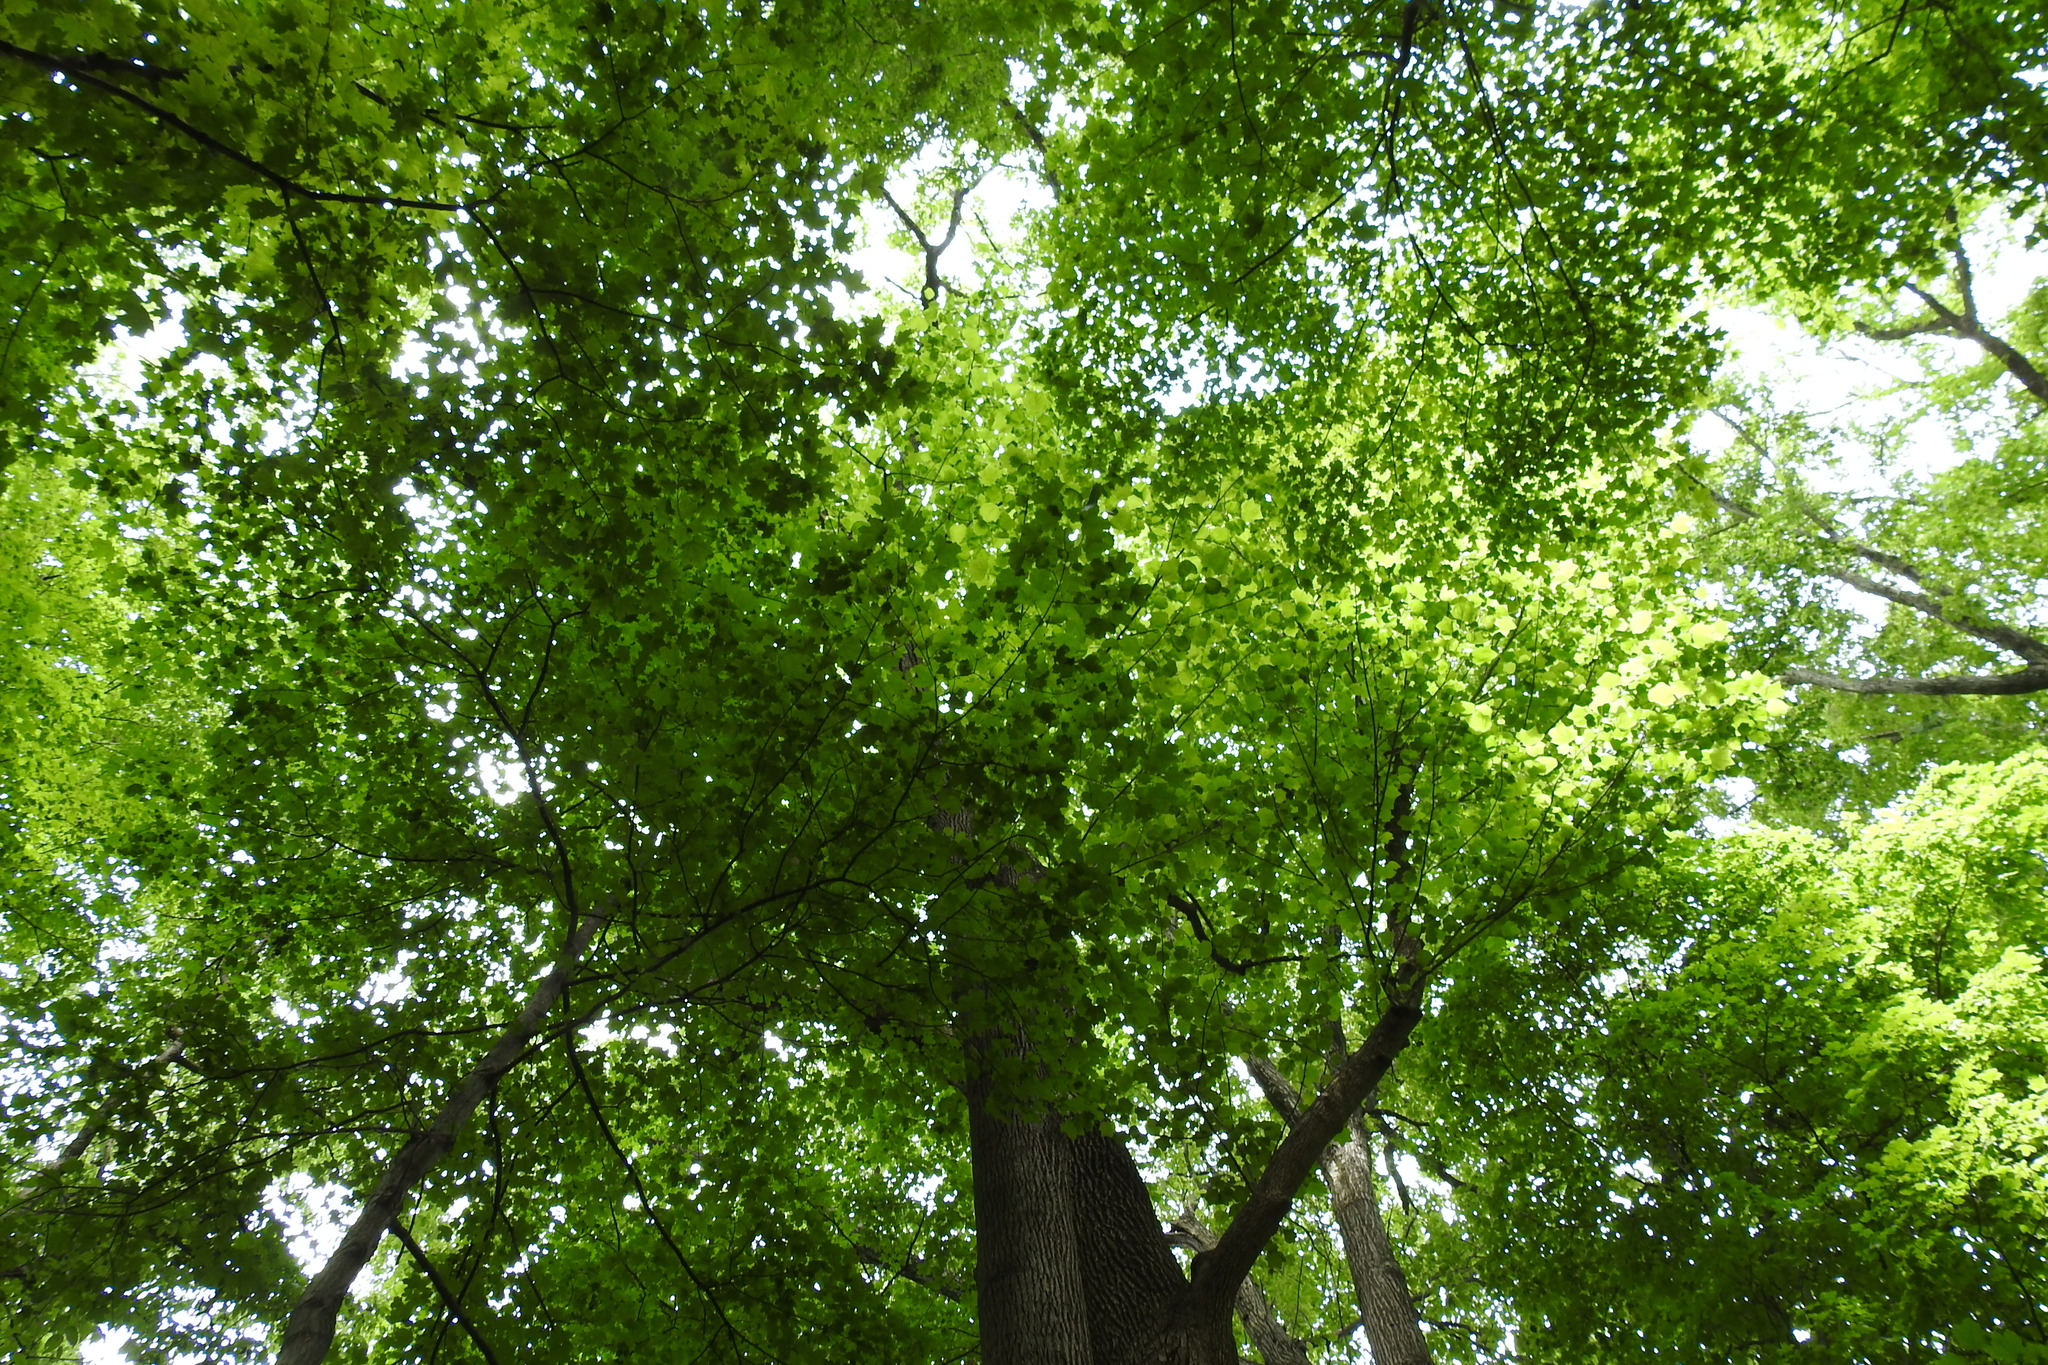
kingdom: Plantae
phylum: Tracheophyta
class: Magnoliopsida
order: Magnoliales
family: Magnoliaceae
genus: Liriodendron
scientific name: Liriodendron tulipifera
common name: Tulip tree
